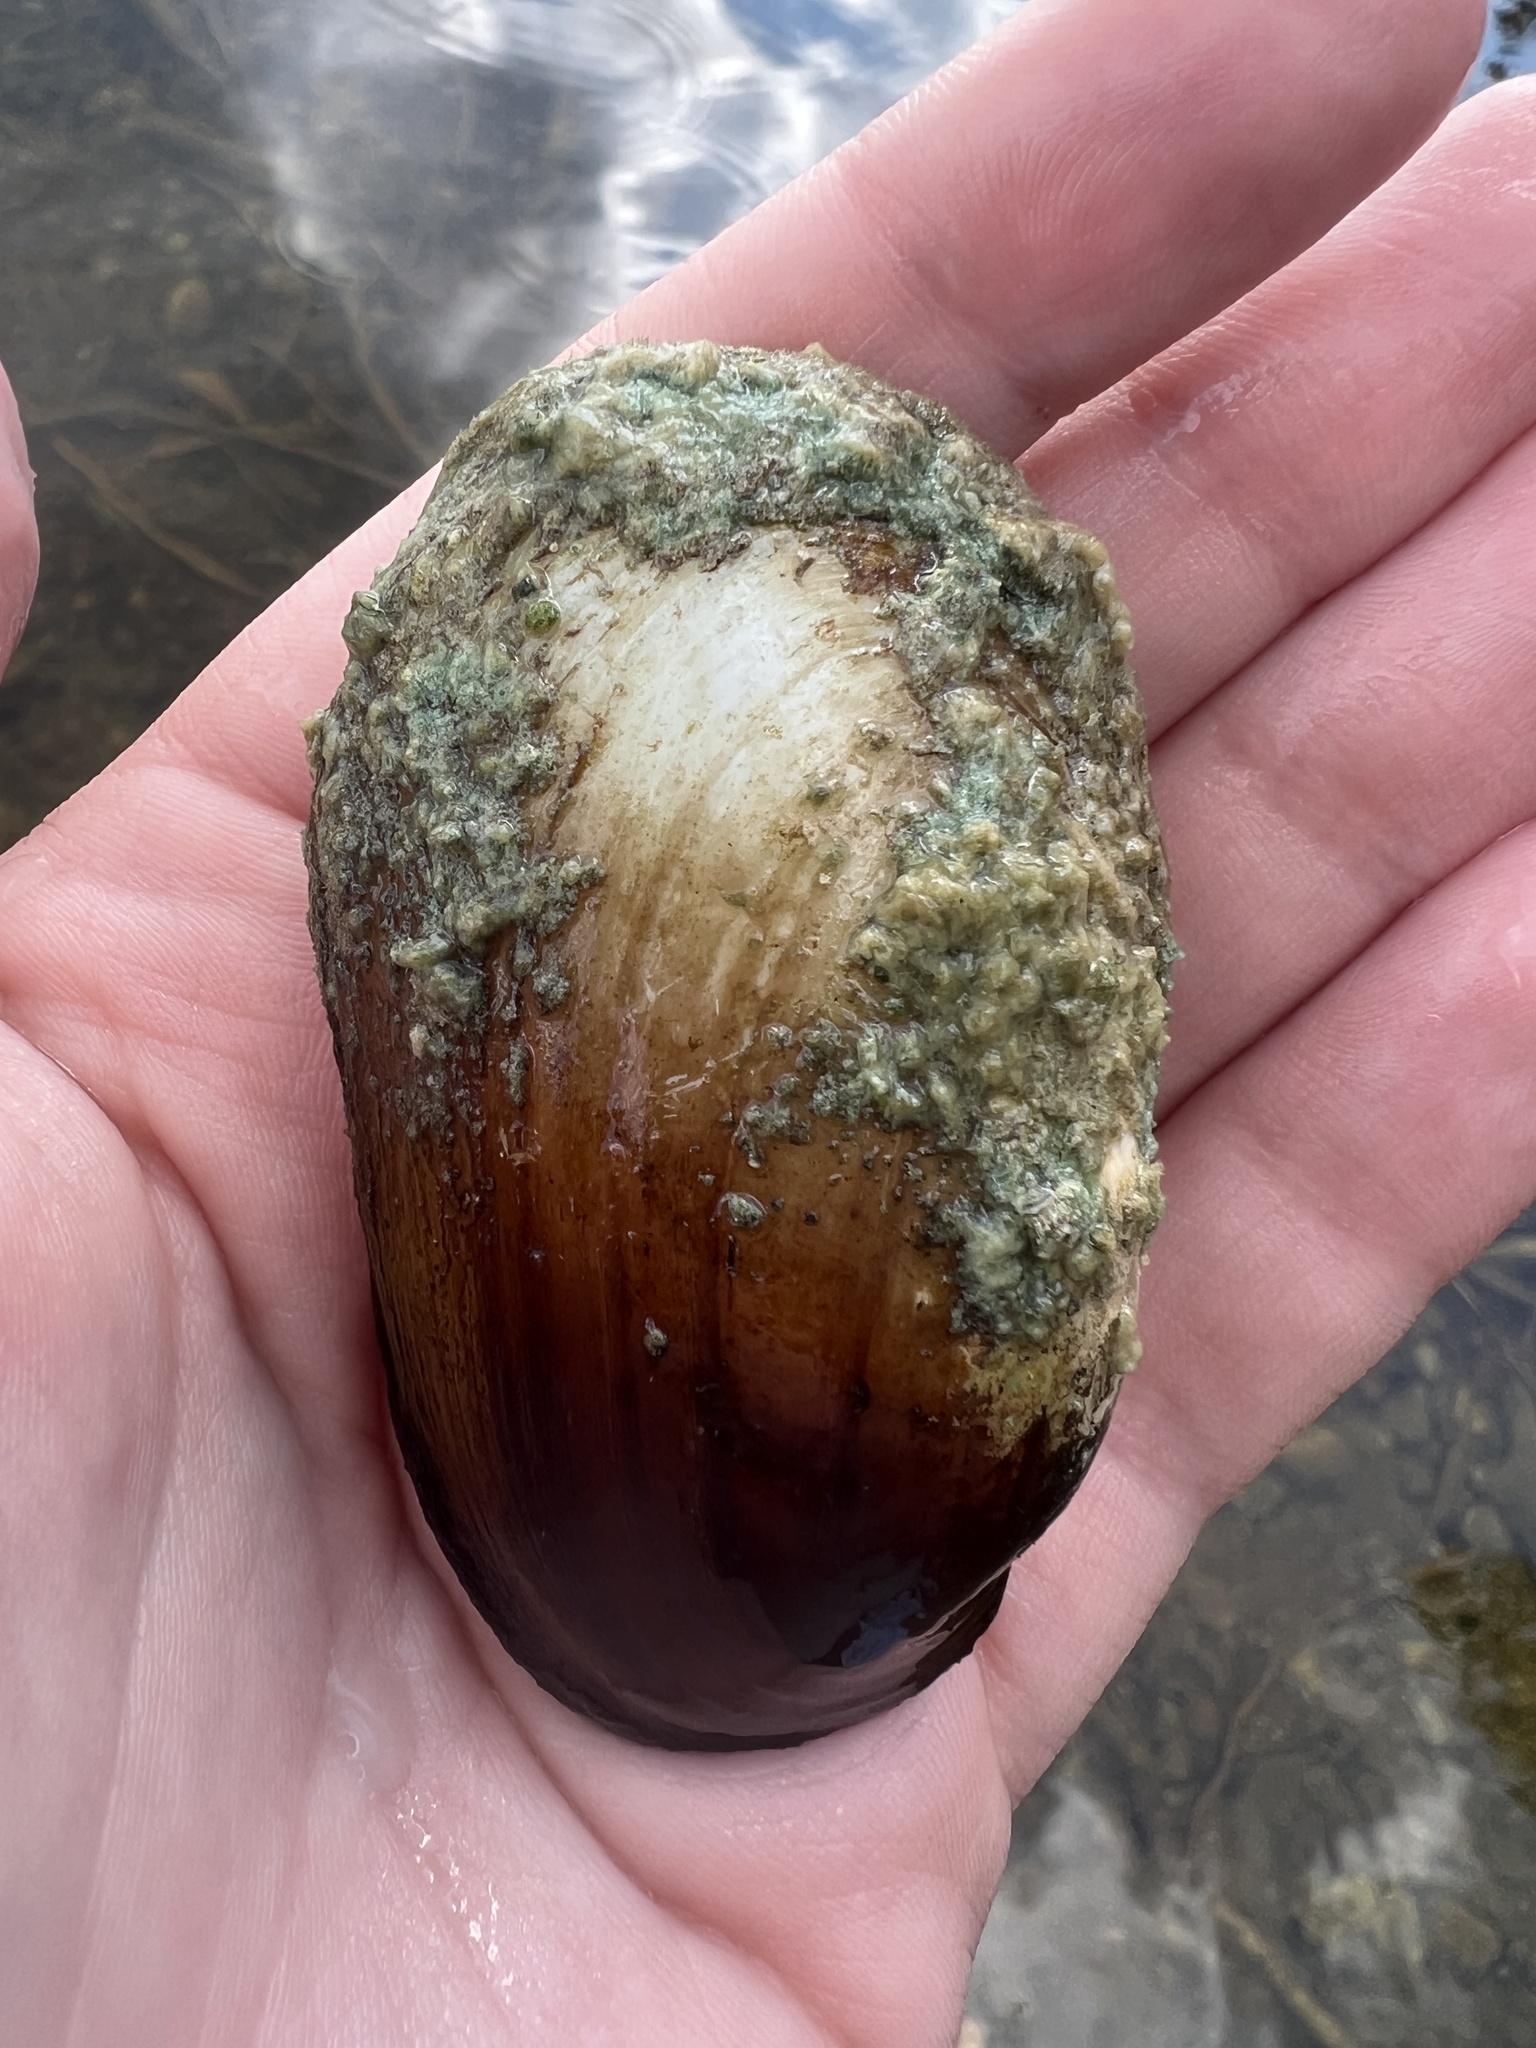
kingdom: Animalia
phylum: Mollusca
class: Bivalvia
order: Unionida
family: Unionidae
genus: Lampsilis
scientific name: Lampsilis siliquoidea
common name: Fatmucket
